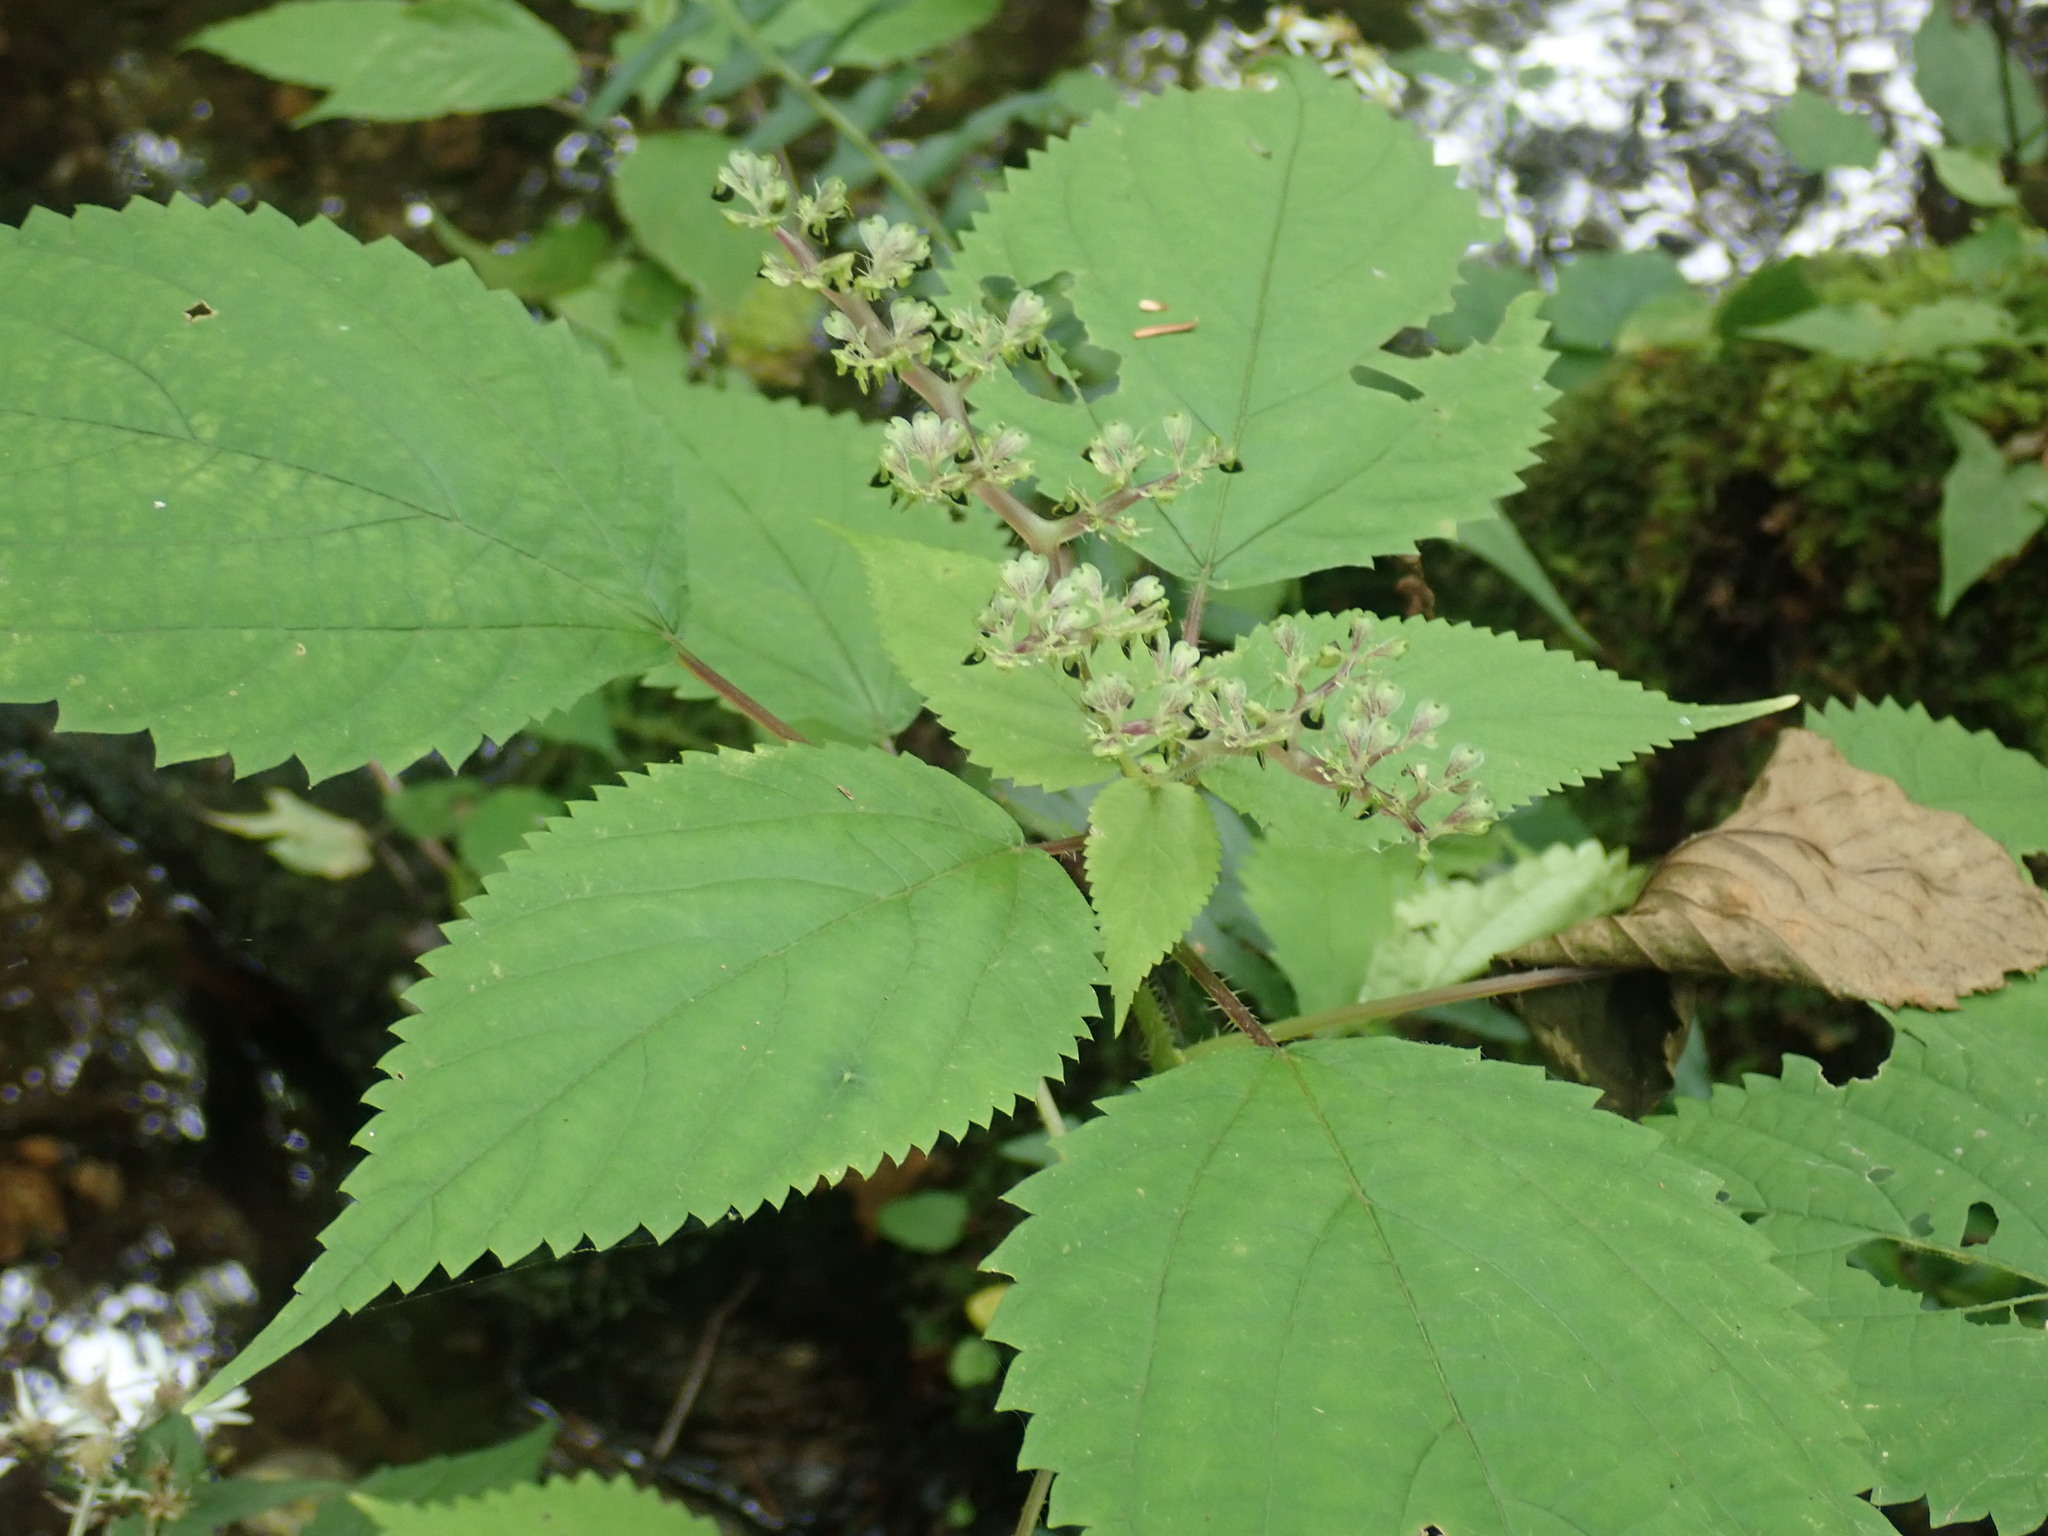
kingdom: Plantae
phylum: Tracheophyta
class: Magnoliopsida
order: Rosales
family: Urticaceae
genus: Laportea
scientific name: Laportea canadensis
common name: Canada nettle
